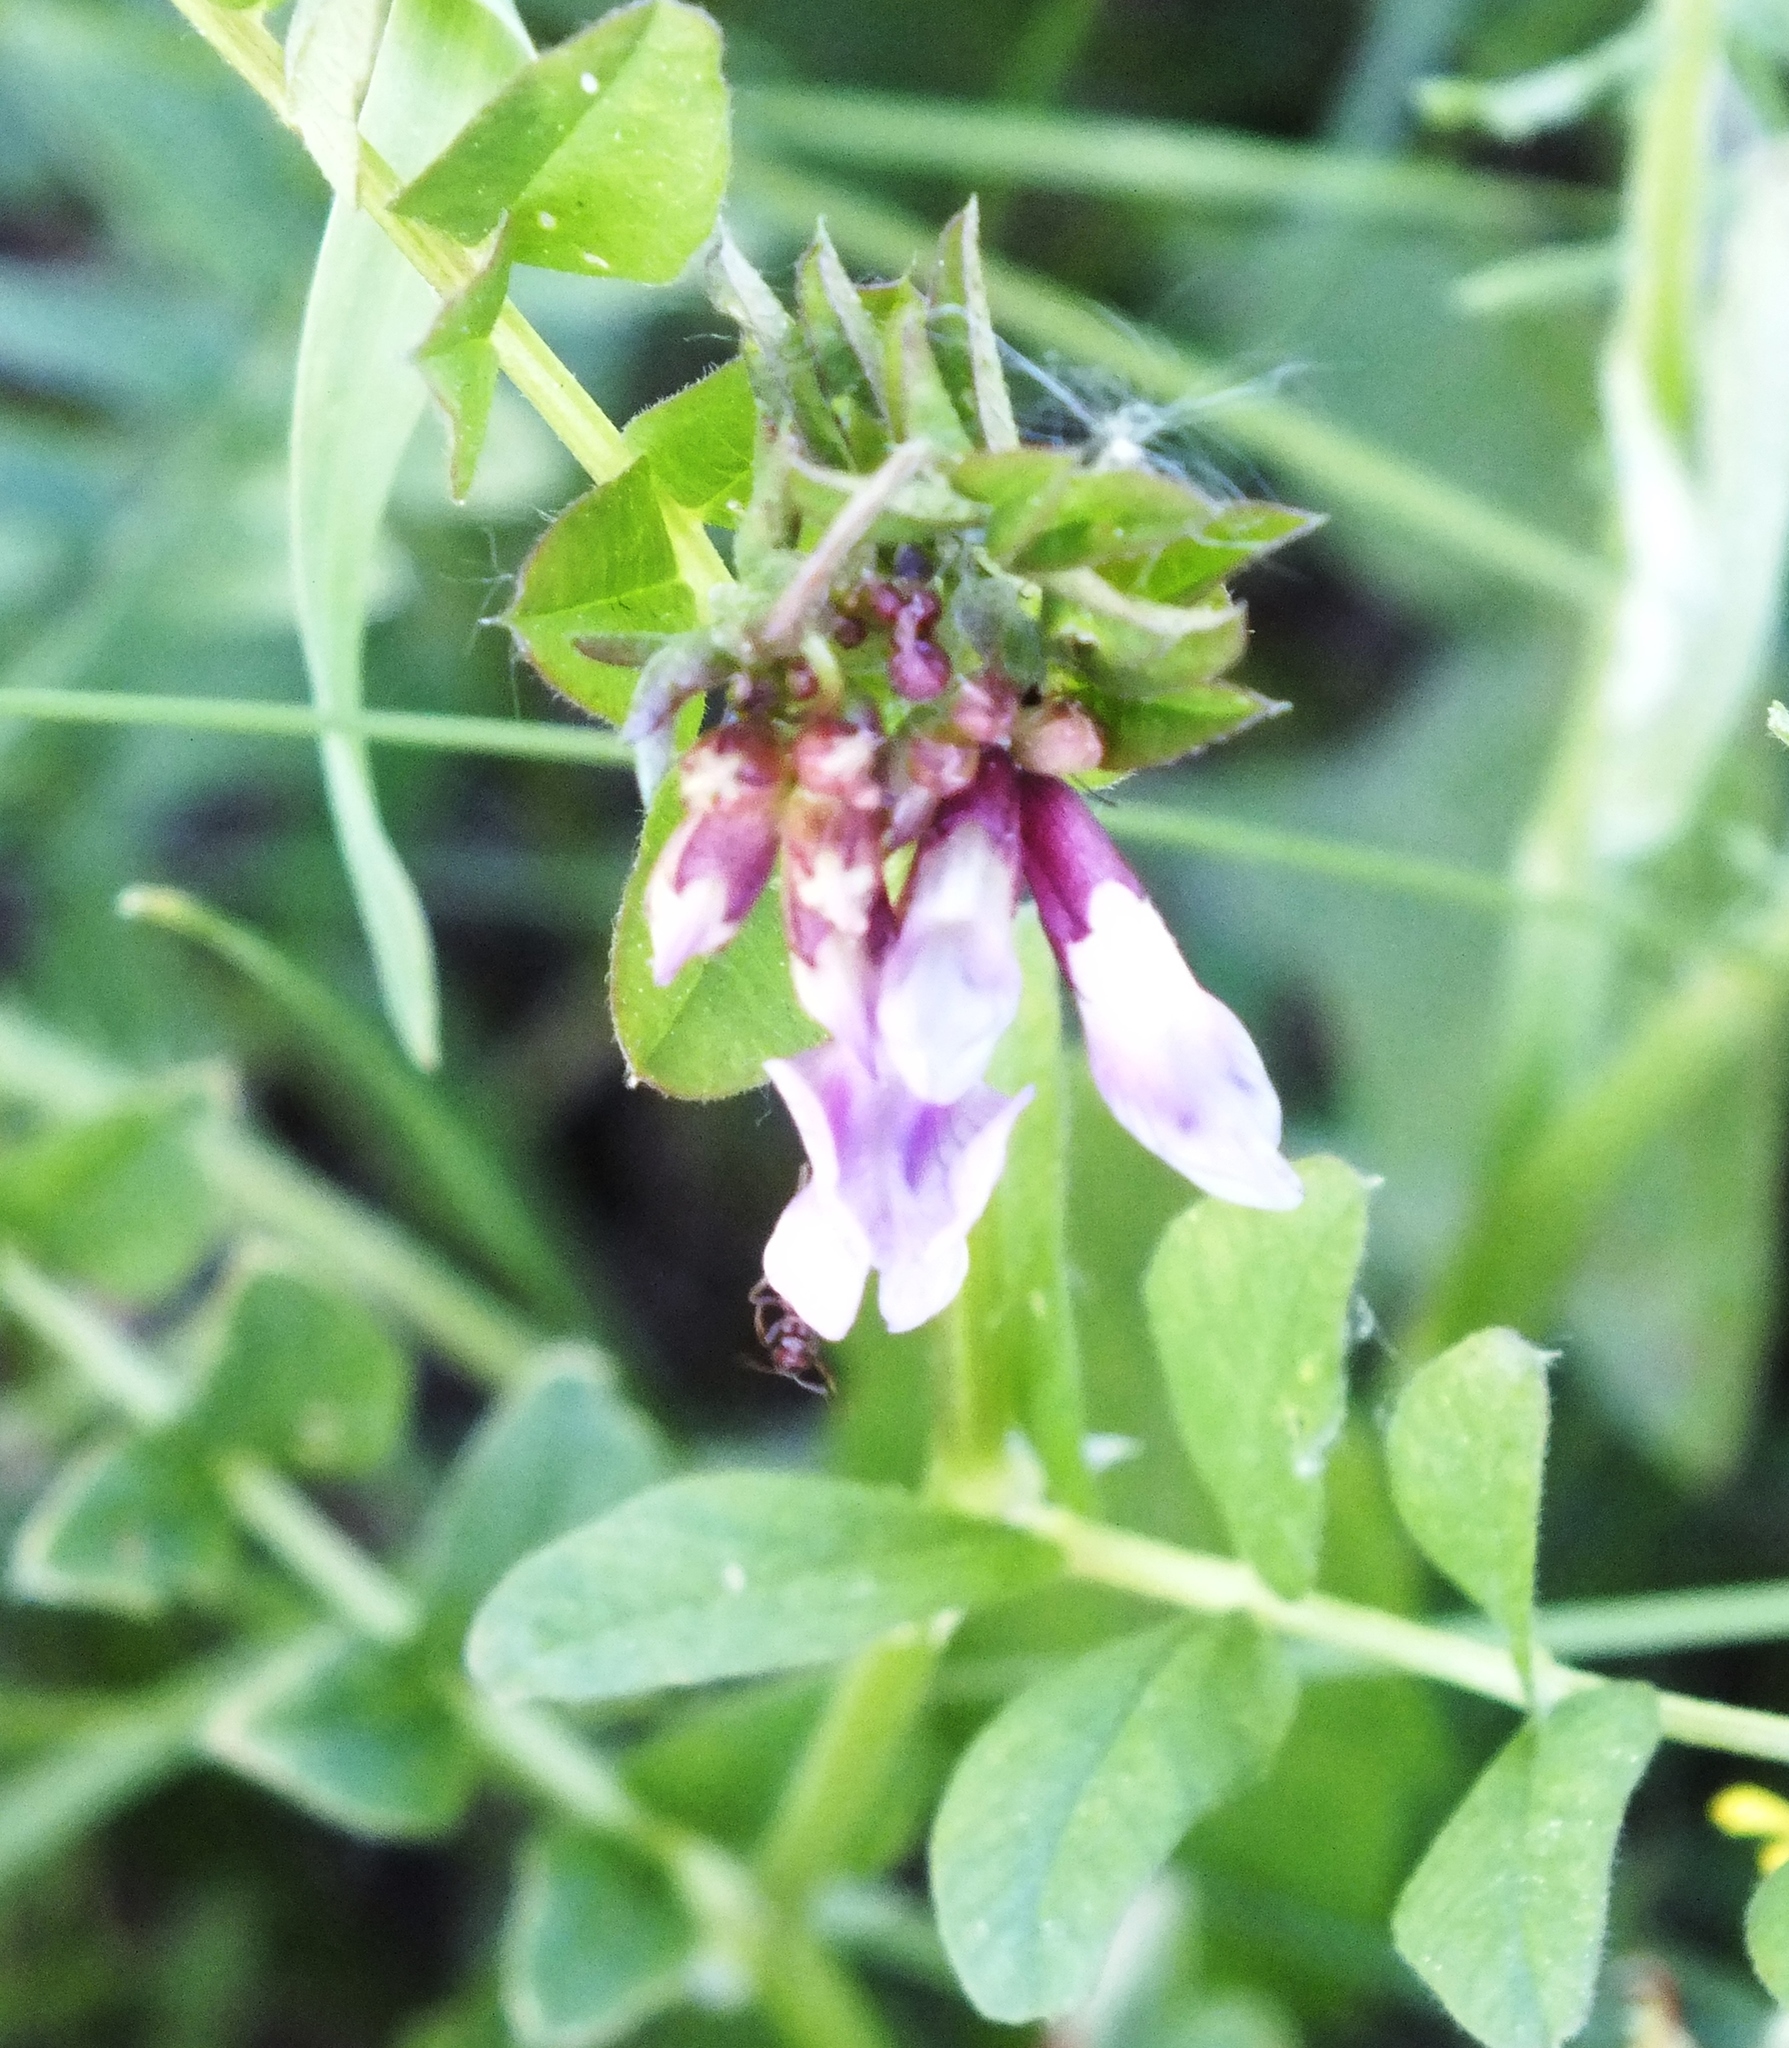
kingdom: Plantae
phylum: Tracheophyta
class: Magnoliopsida
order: Fabales
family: Fabaceae
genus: Vicia
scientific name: Vicia sepium
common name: Bush vetch
